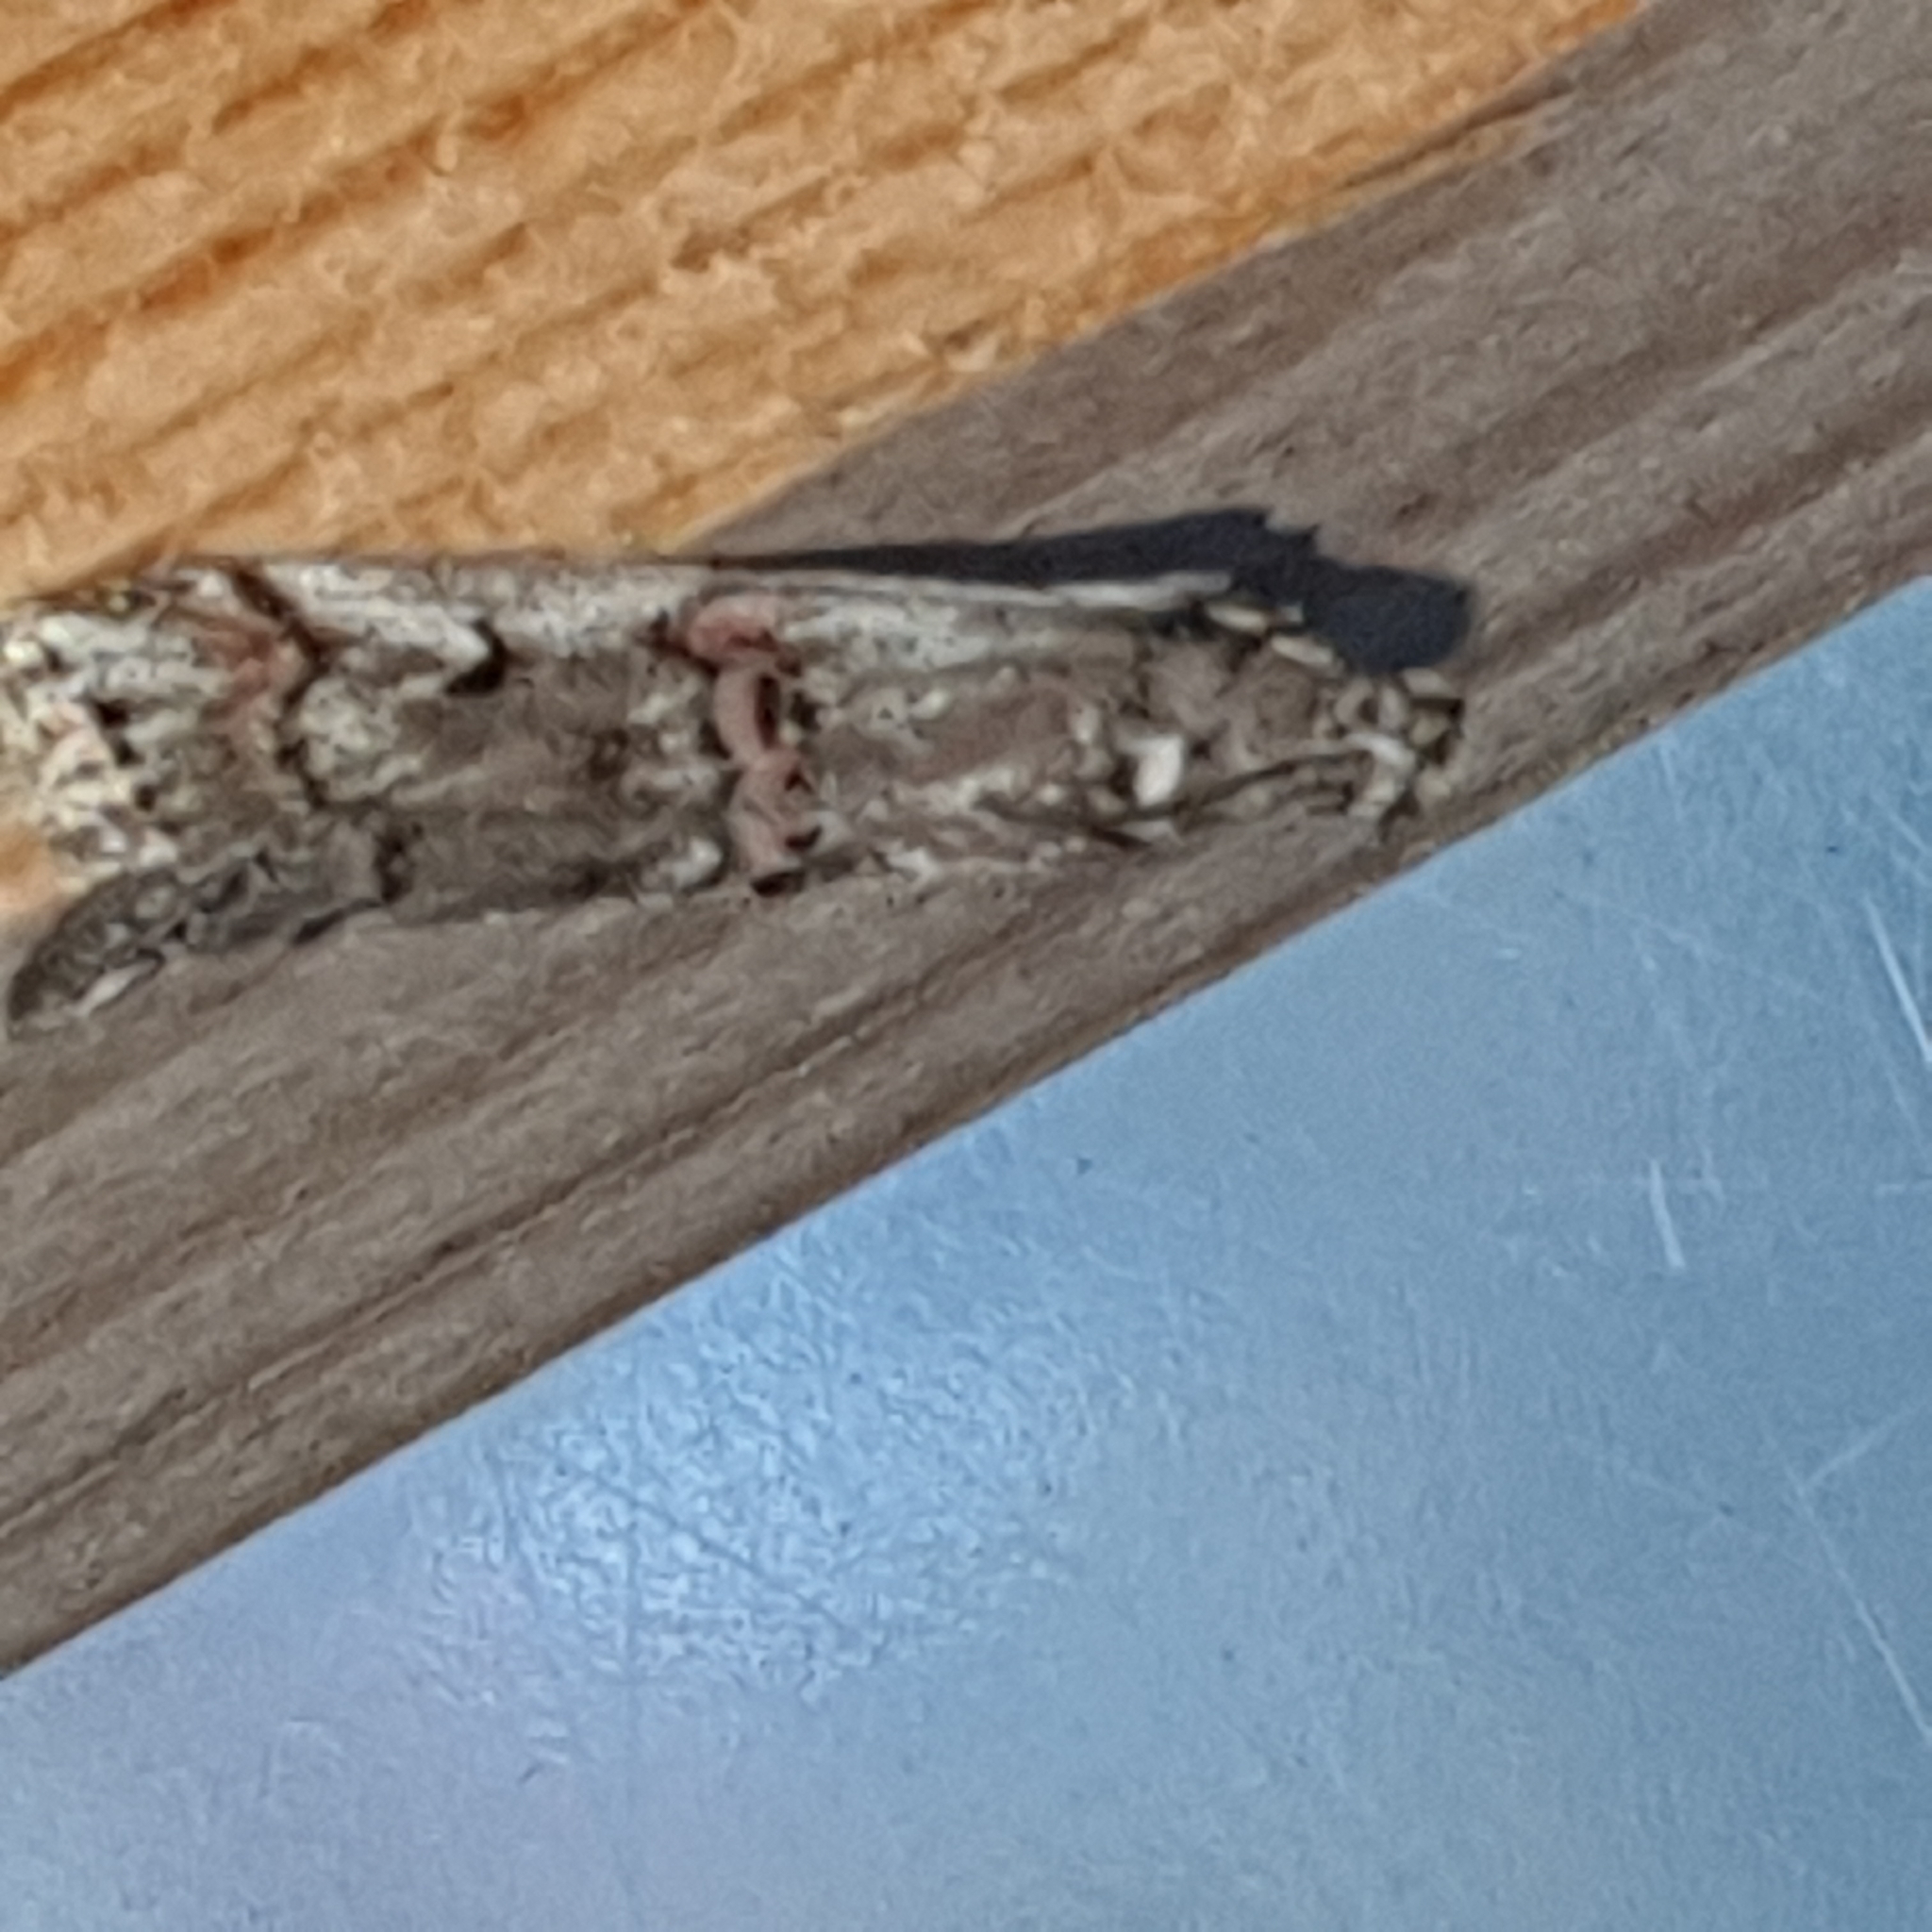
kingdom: Animalia
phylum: Arthropoda
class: Insecta
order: Lepidoptera
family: Pyralidae
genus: Pempelia
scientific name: Pempelia palumbella
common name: Heather knot-horn
